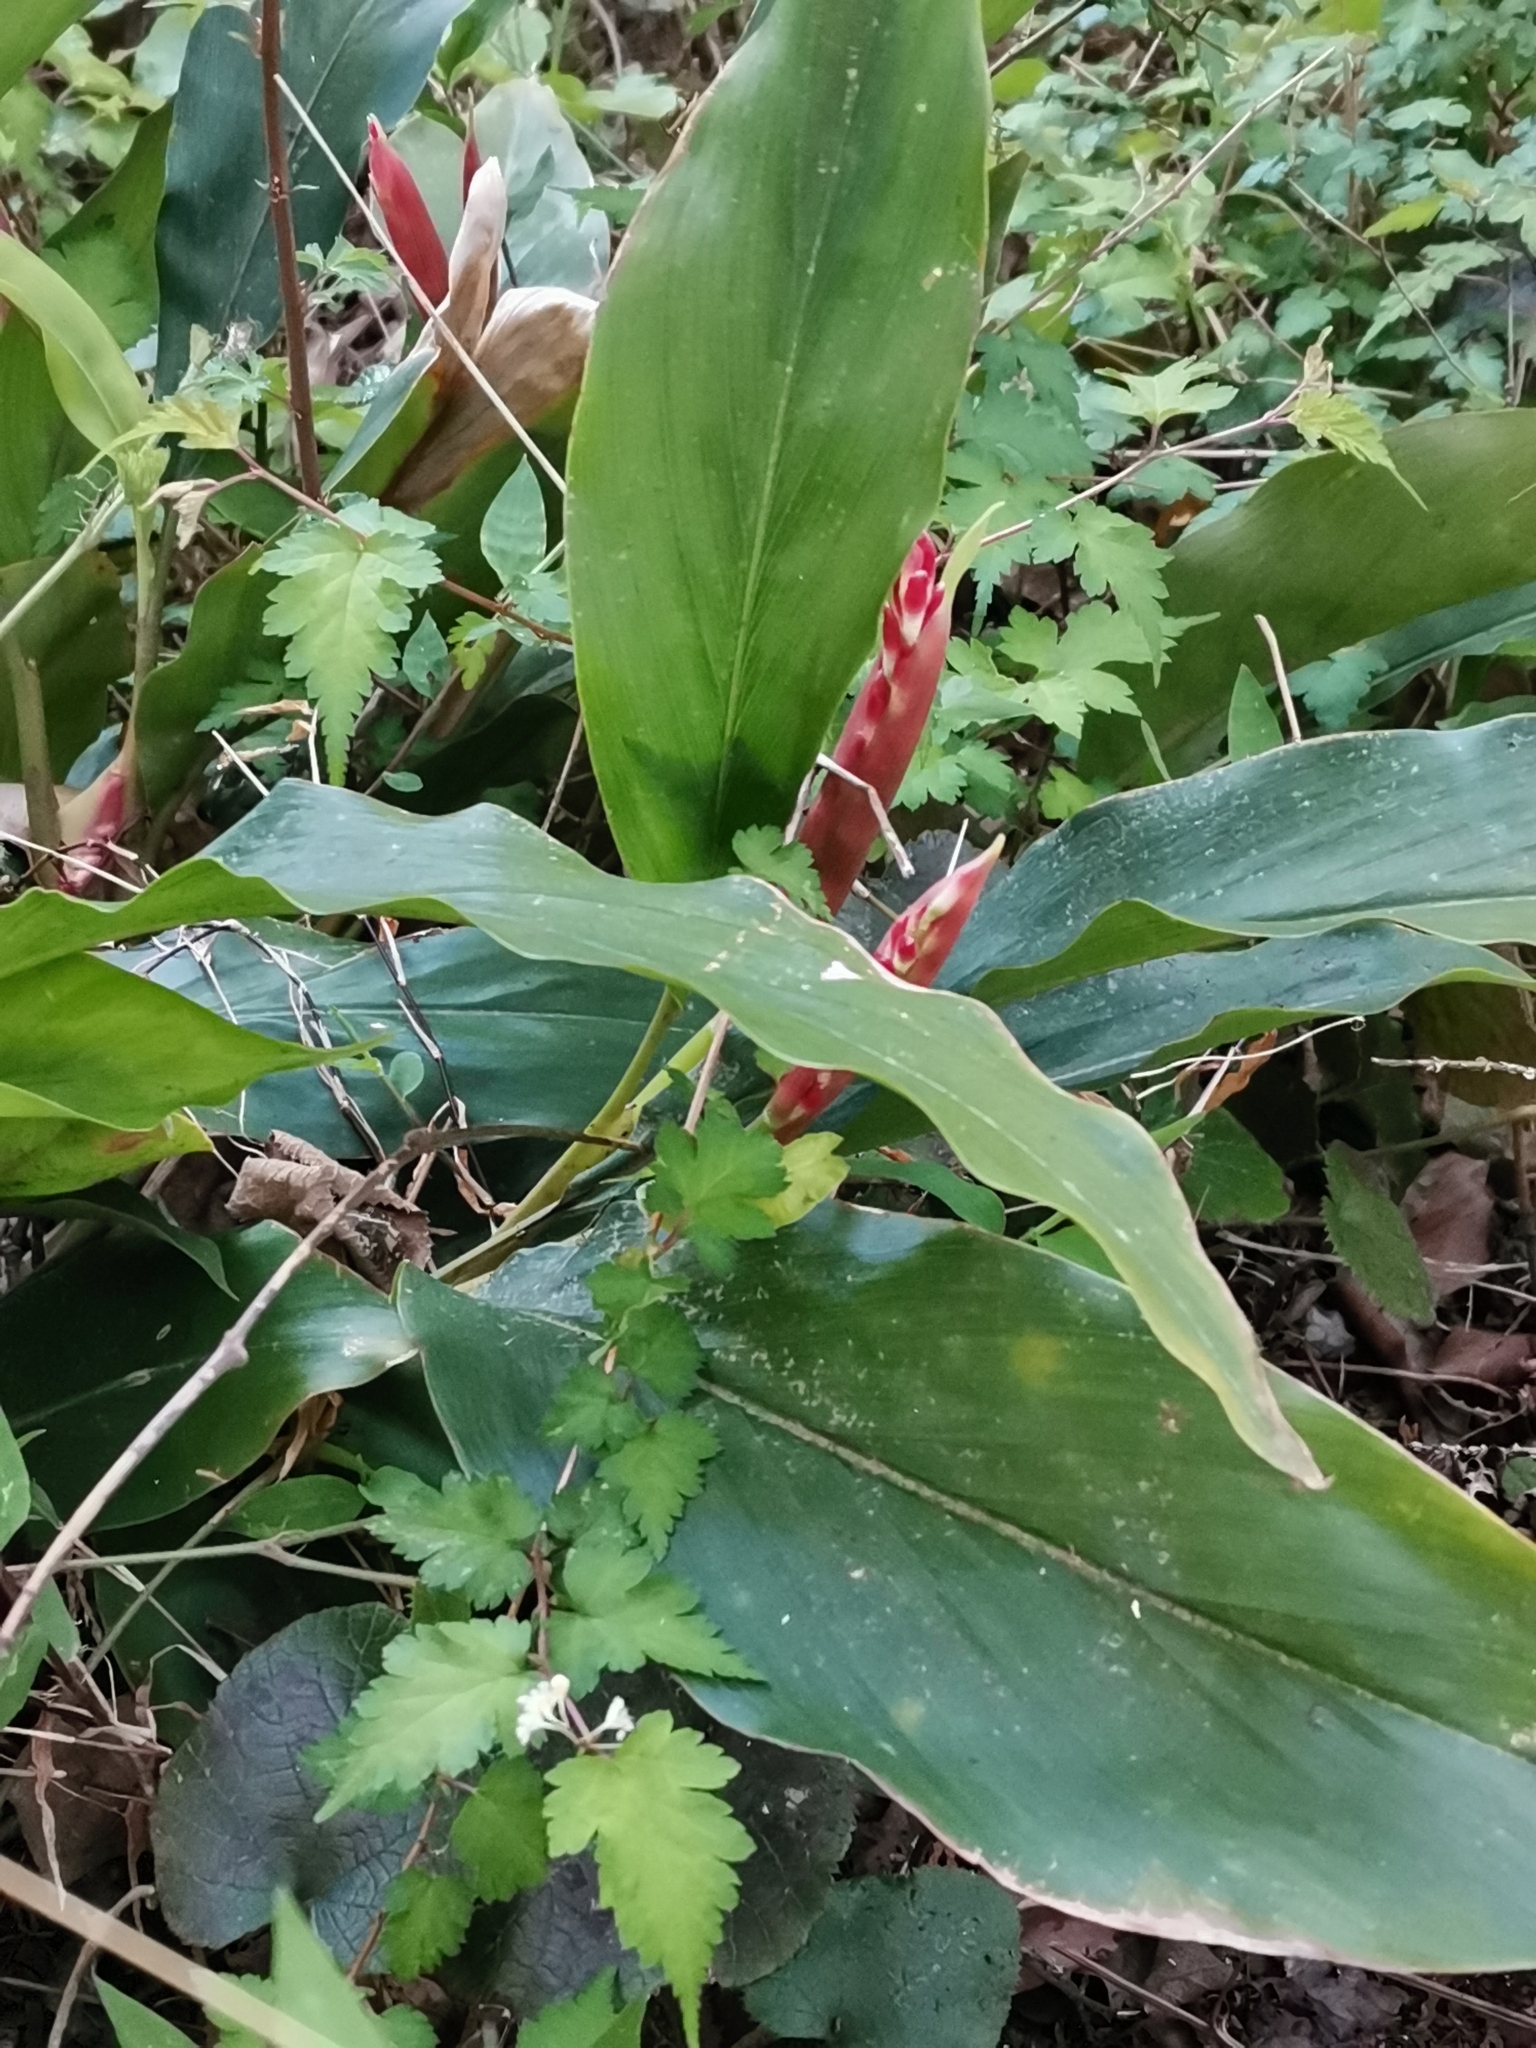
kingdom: Plantae
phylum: Tracheophyta
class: Liliopsida
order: Zingiberales
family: Zingiberaceae
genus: Alpinia
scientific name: Alpinia japonica
